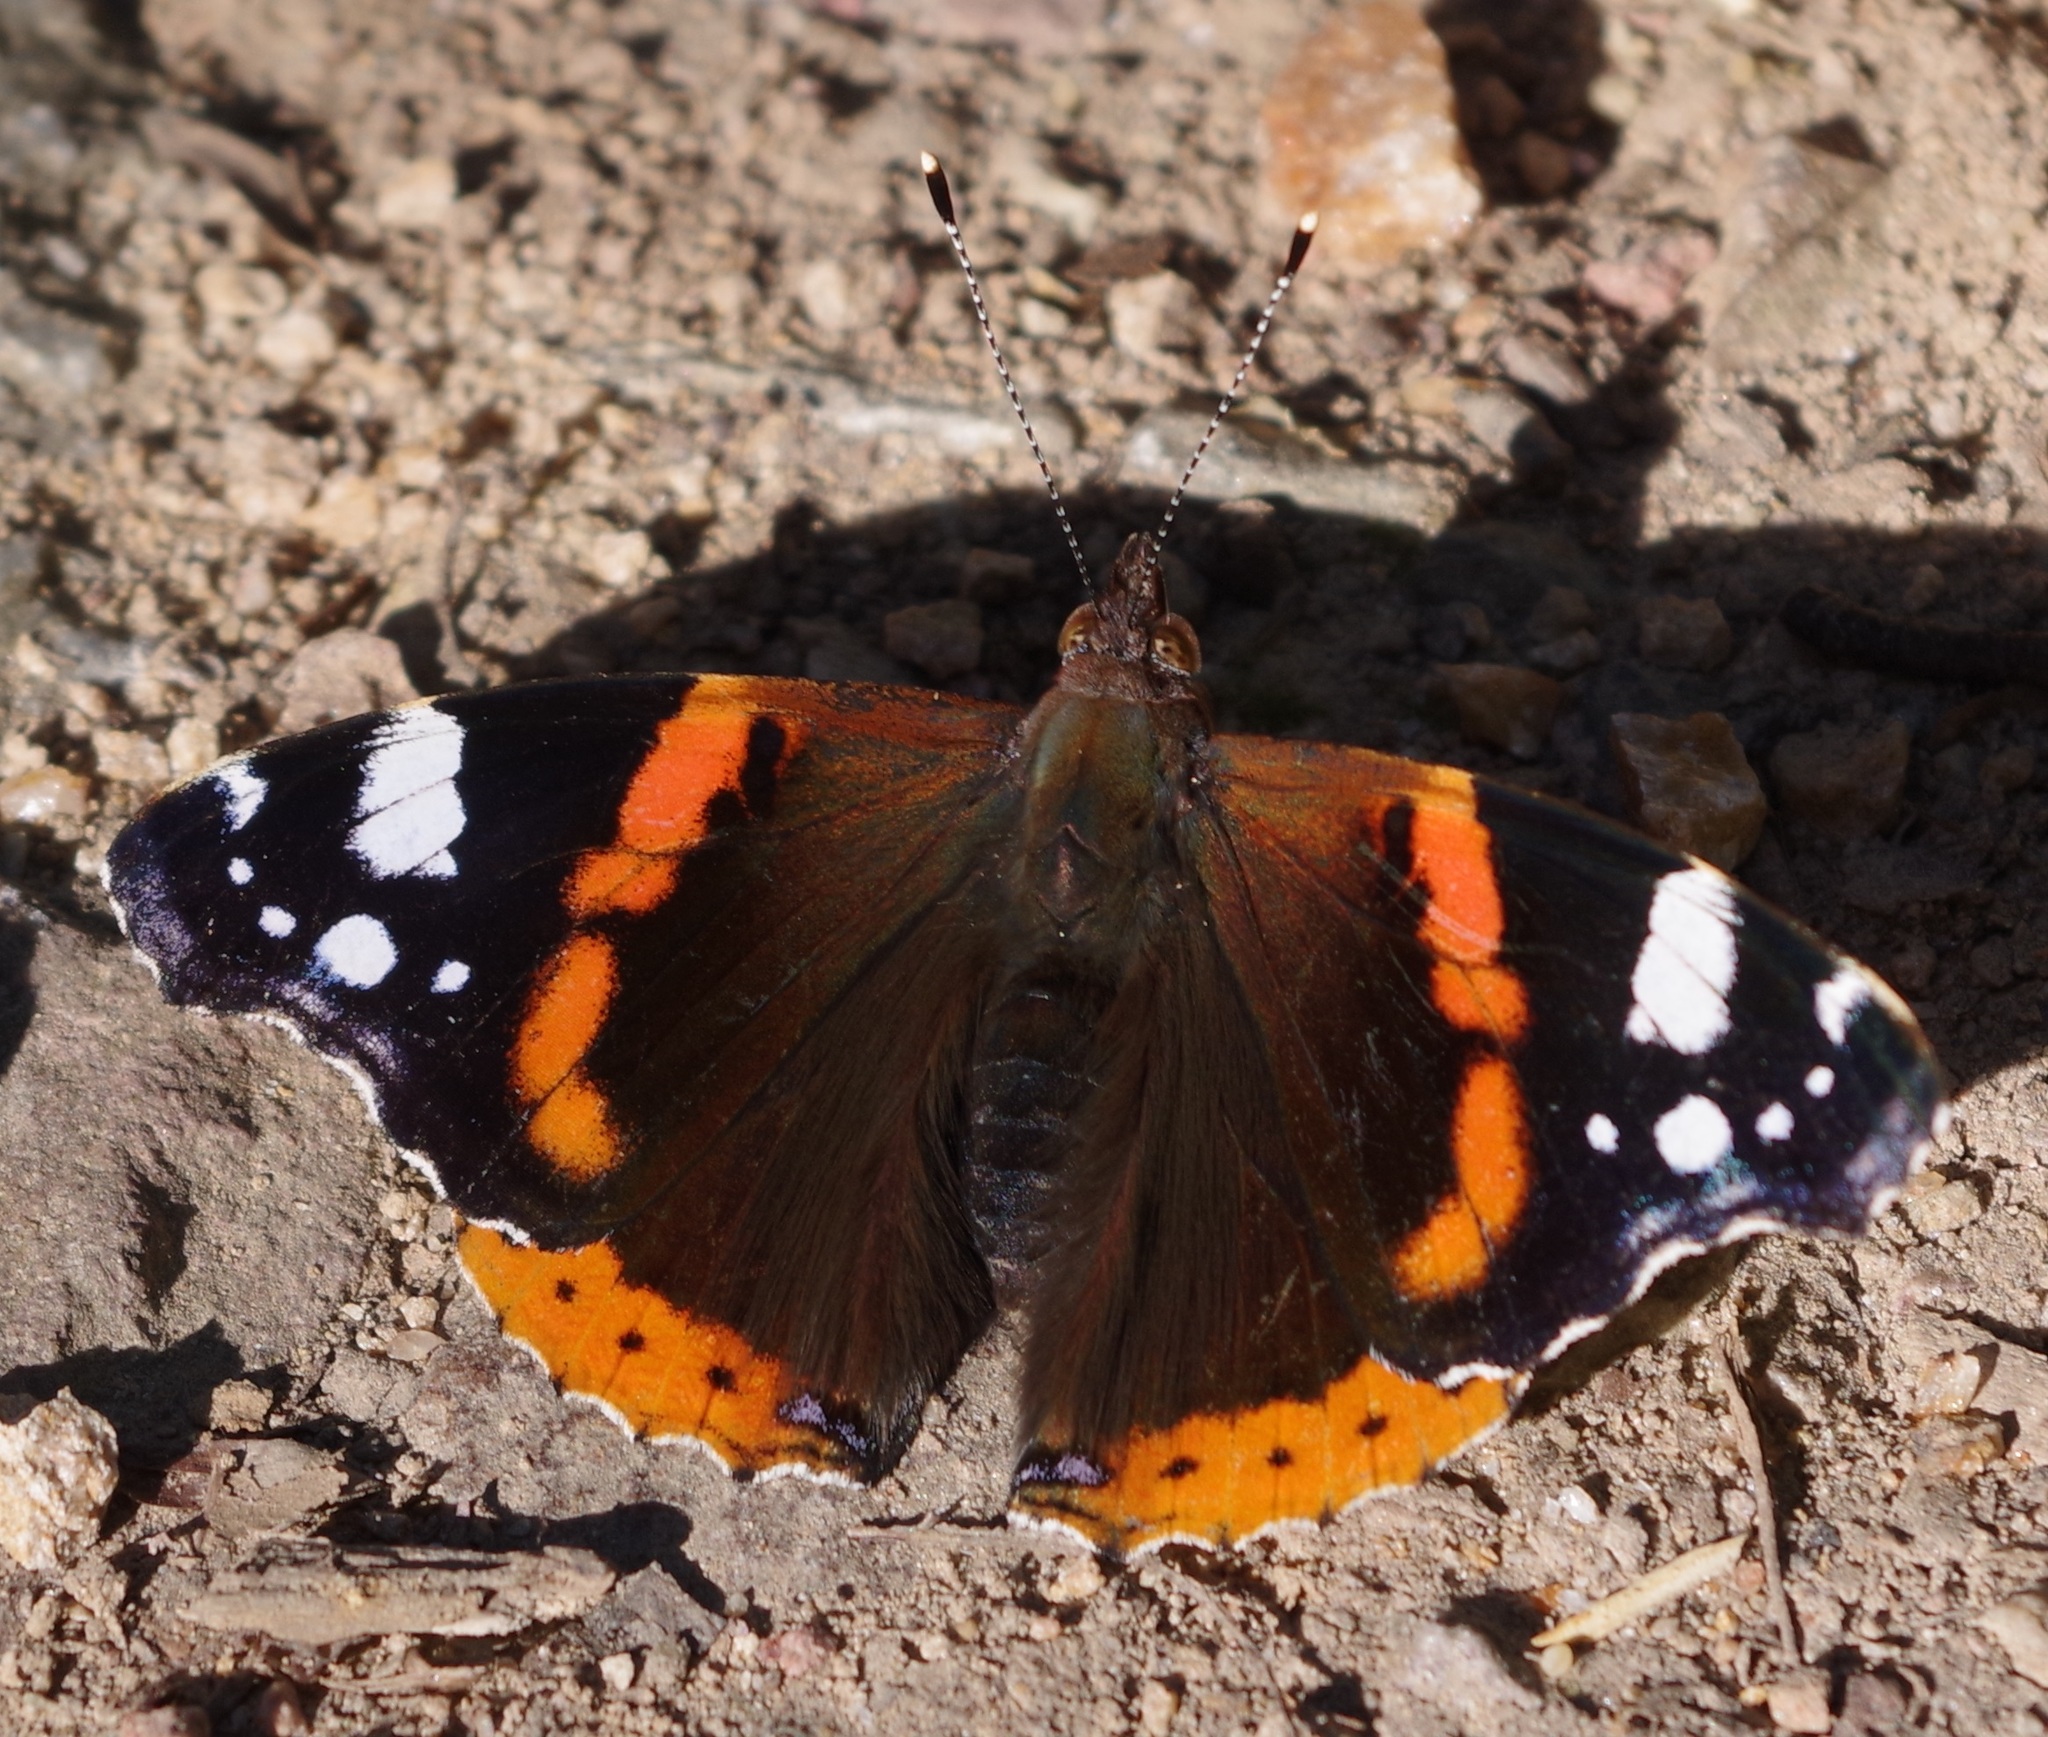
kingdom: Animalia
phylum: Arthropoda
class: Insecta
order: Lepidoptera
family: Nymphalidae
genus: Vanessa
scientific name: Vanessa atalanta
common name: Red admiral
